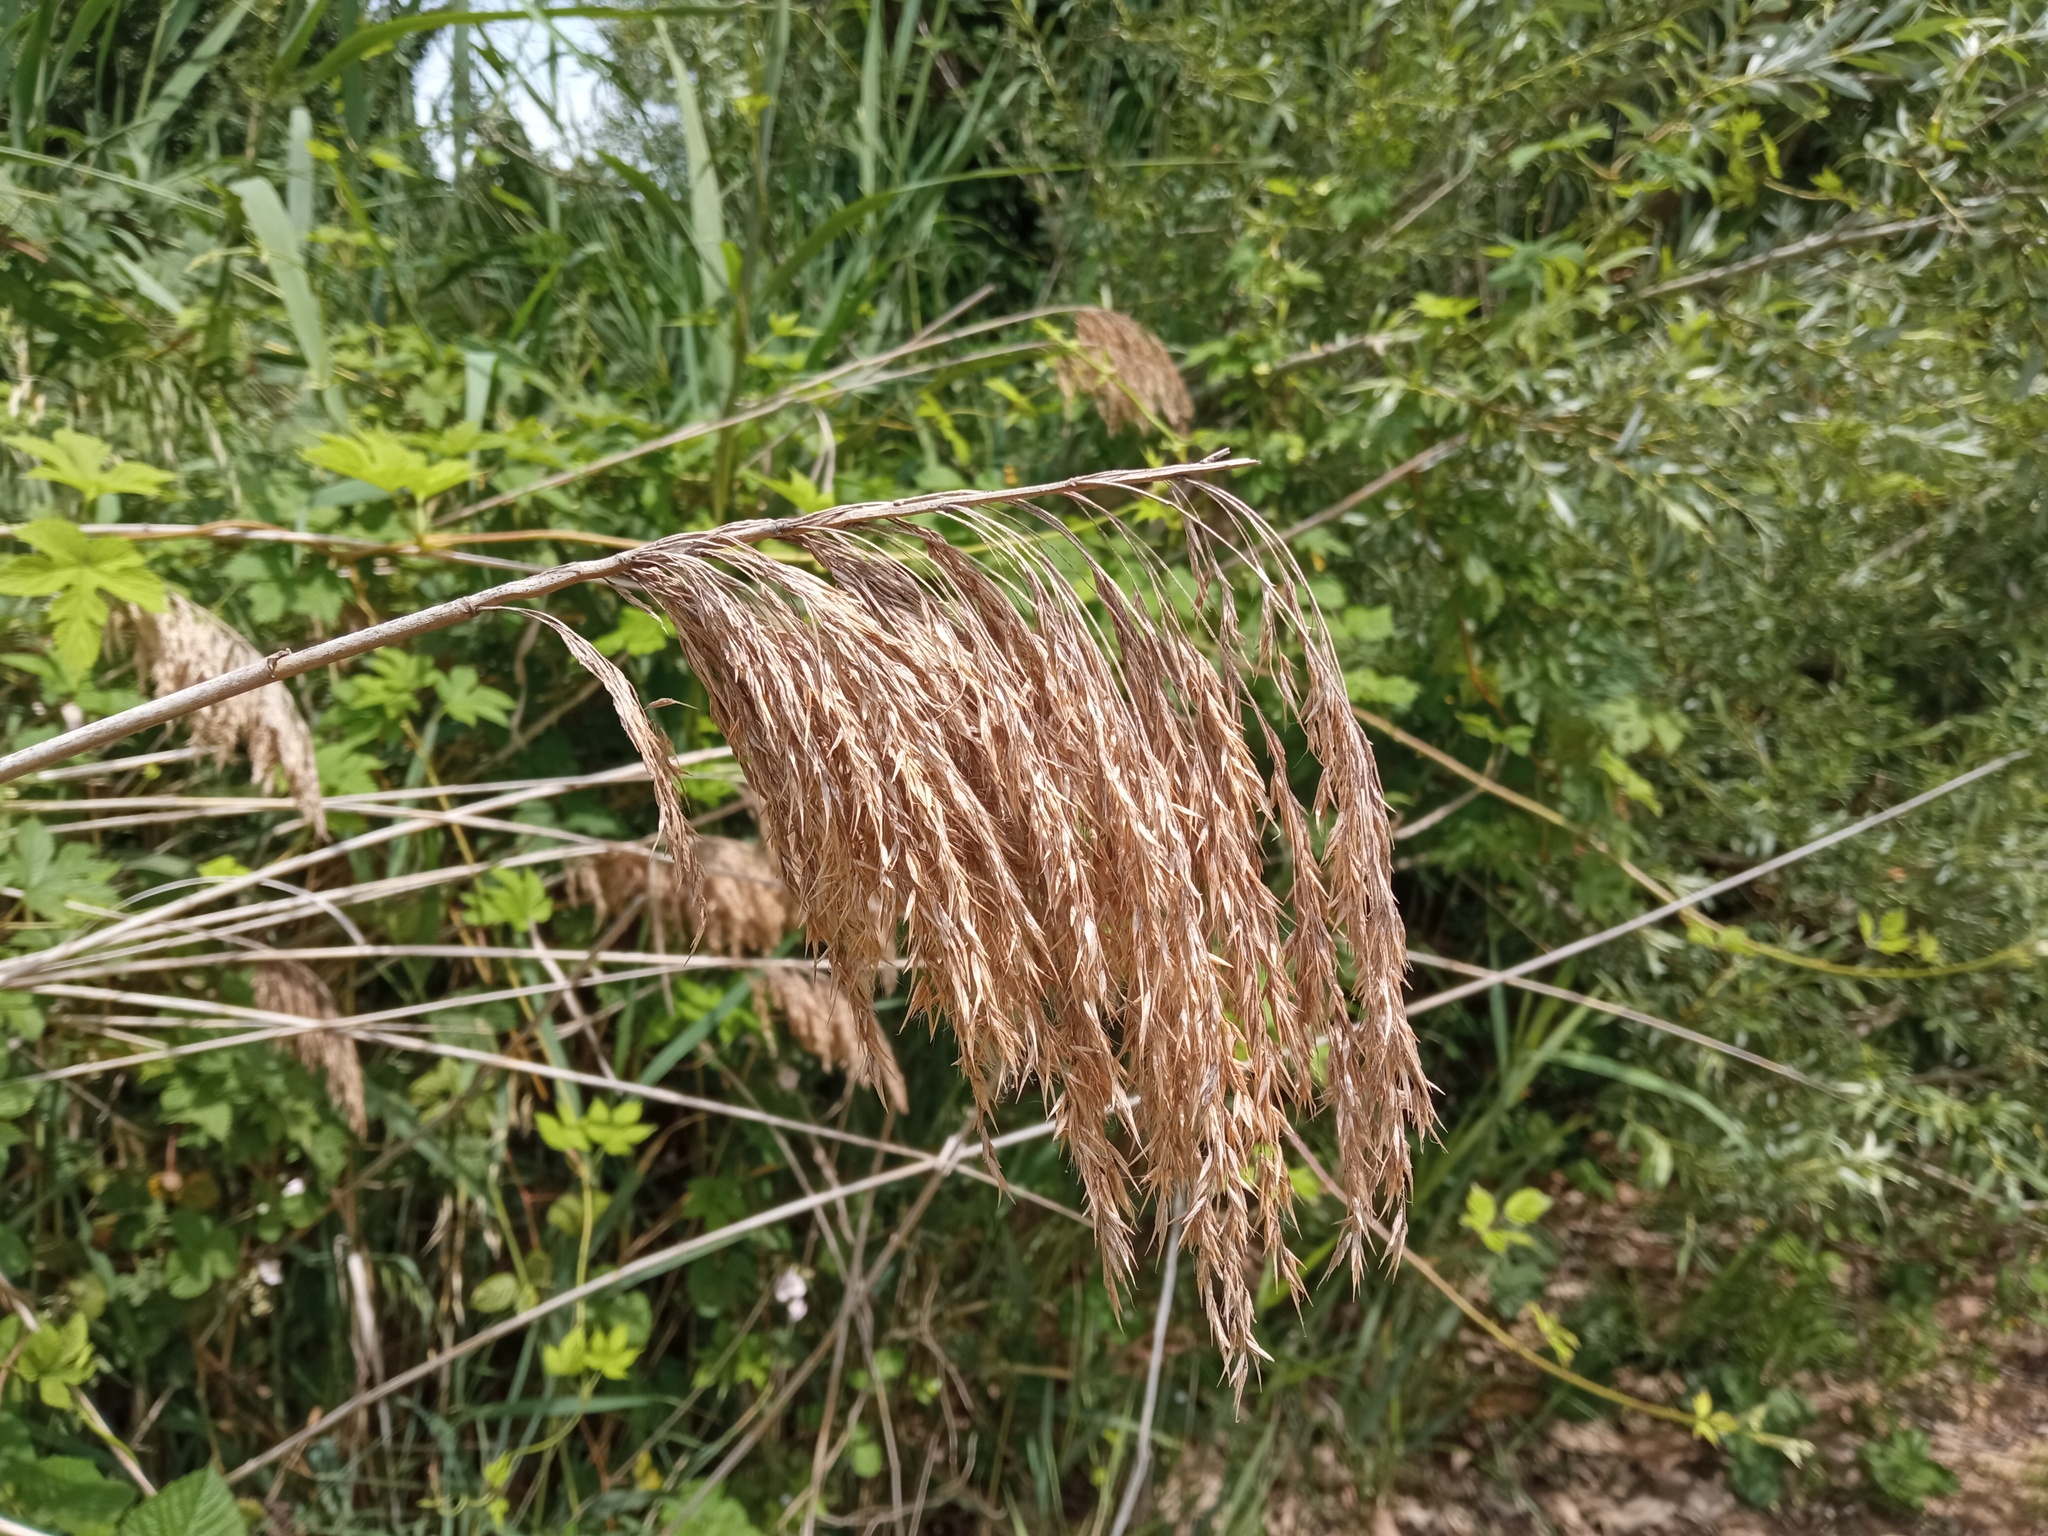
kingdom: Plantae
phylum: Tracheophyta
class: Liliopsida
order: Poales
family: Poaceae
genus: Phragmites
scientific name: Phragmites australis
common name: Common reed
